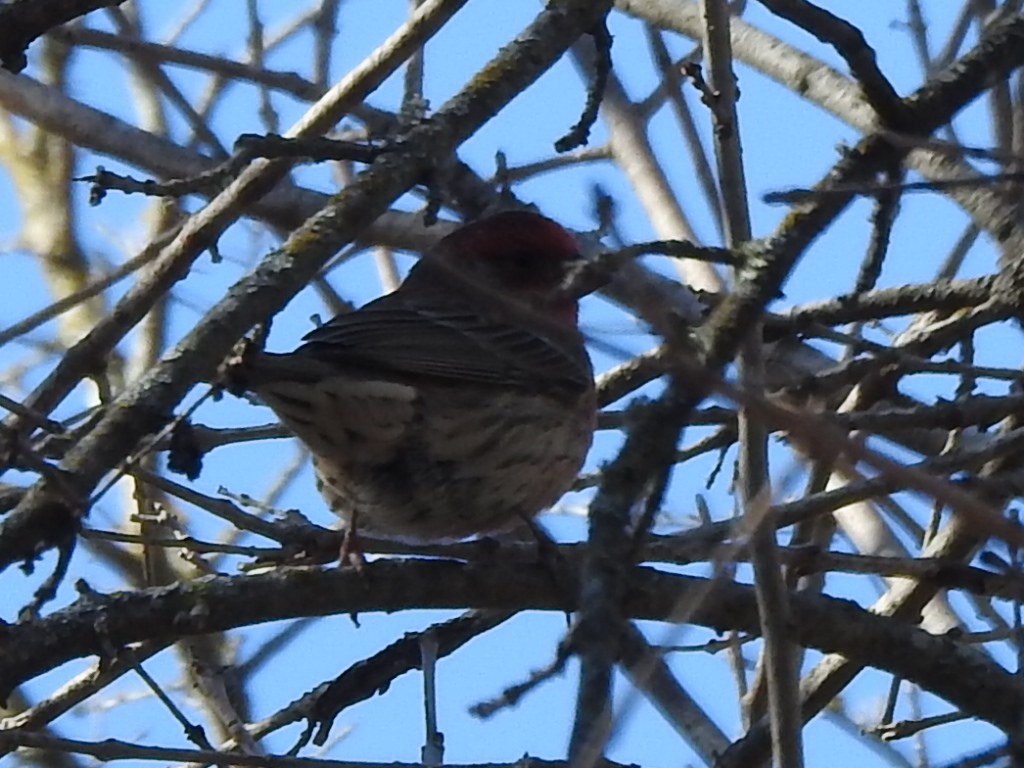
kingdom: Animalia
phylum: Chordata
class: Aves
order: Passeriformes
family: Fringillidae
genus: Haemorhous
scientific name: Haemorhous mexicanus
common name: House finch
